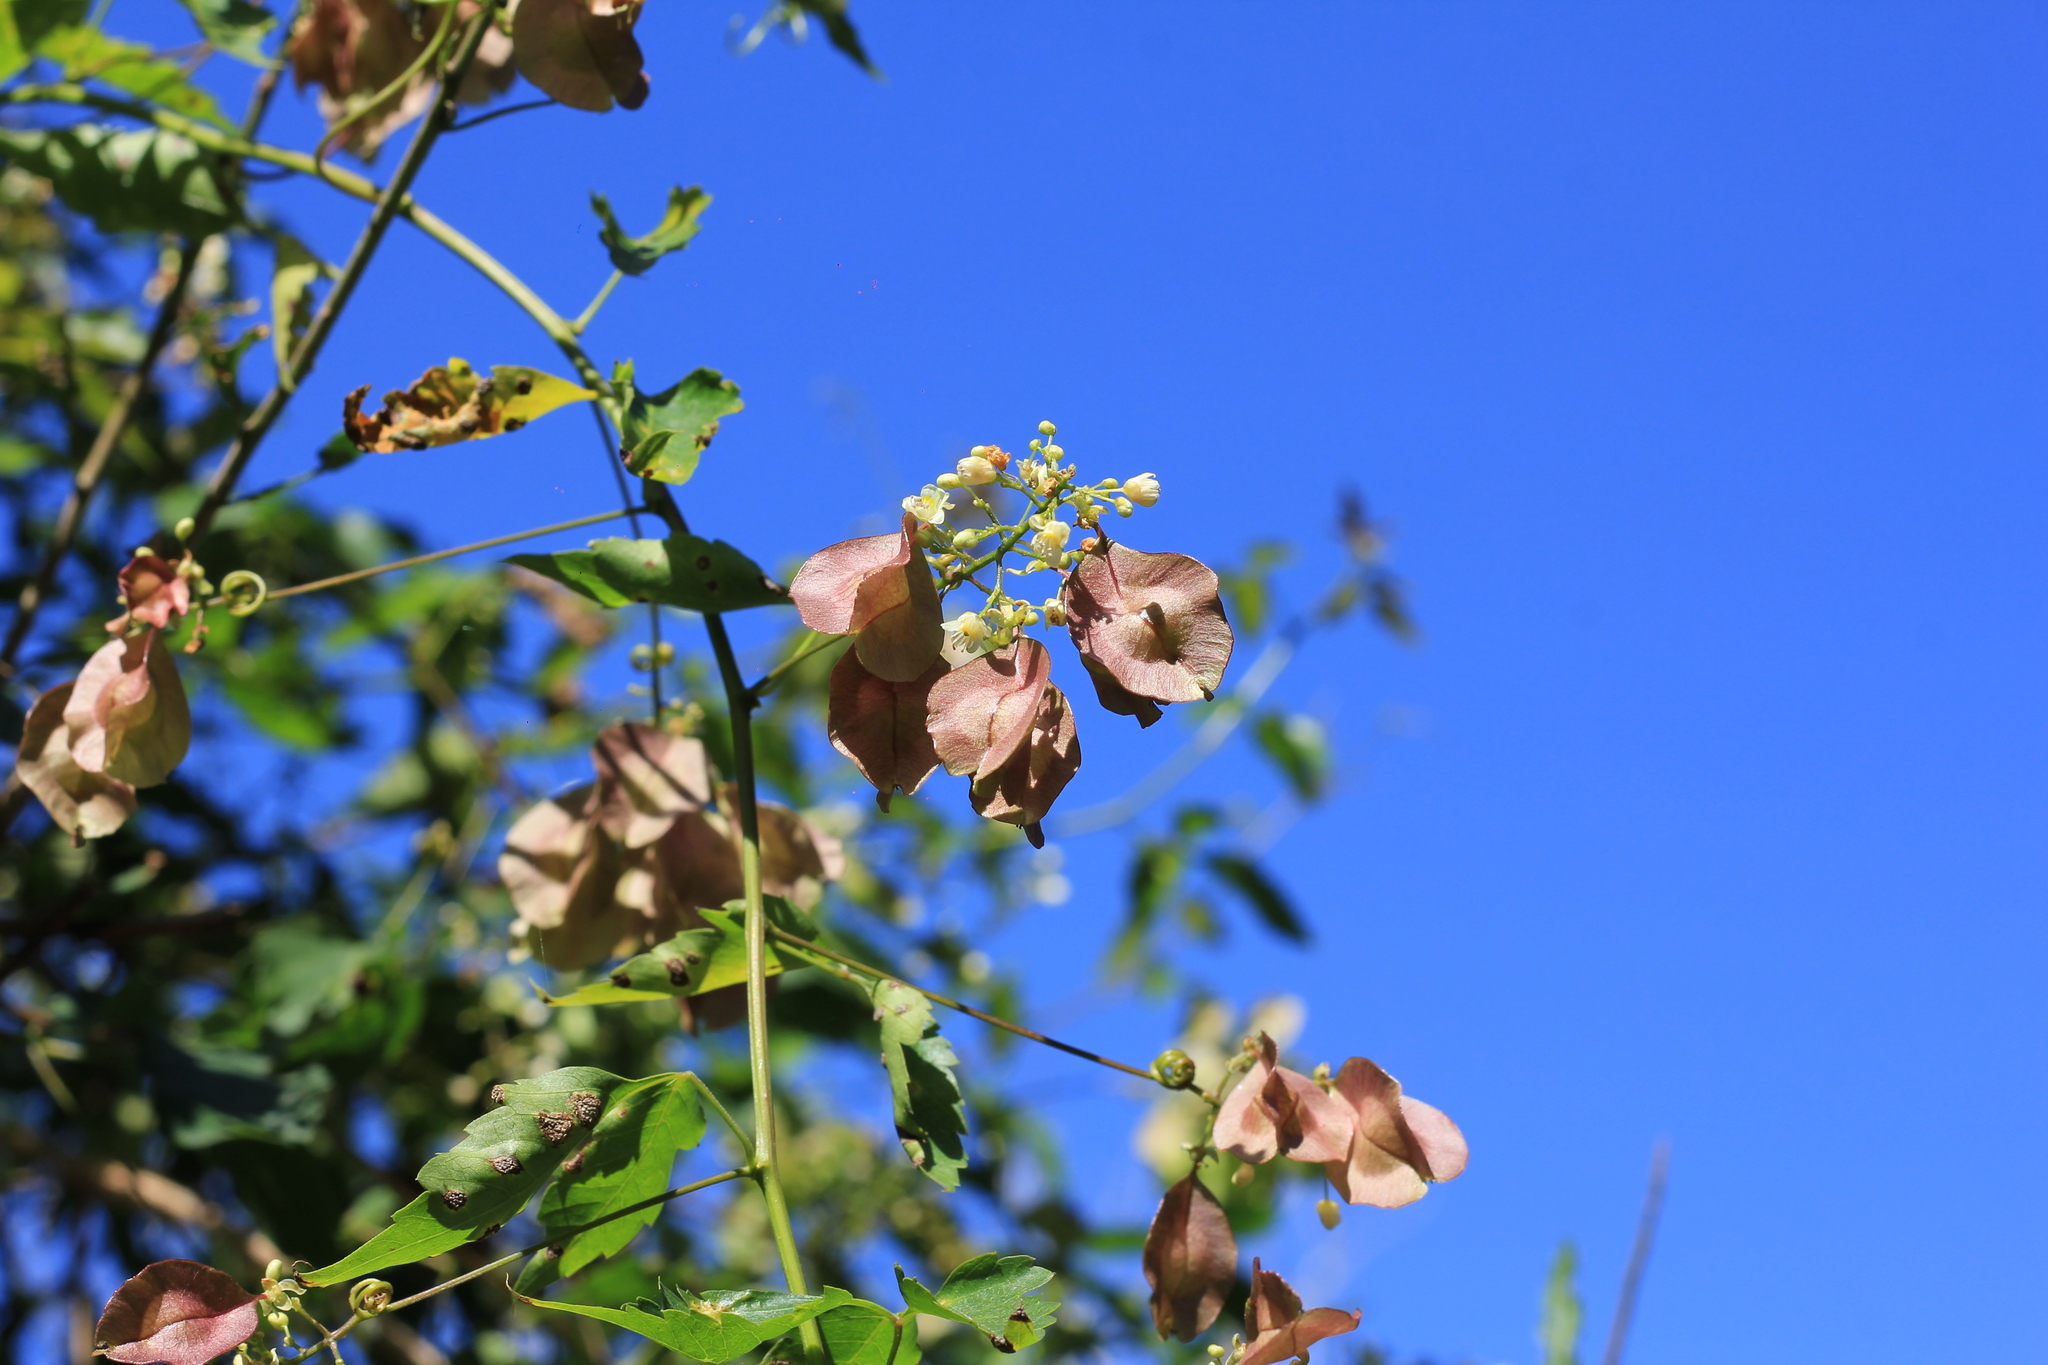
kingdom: Plantae
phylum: Tracheophyta
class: Magnoliopsida
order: Sapindales
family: Sapindaceae
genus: Urvillea
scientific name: Urvillea uniloba
